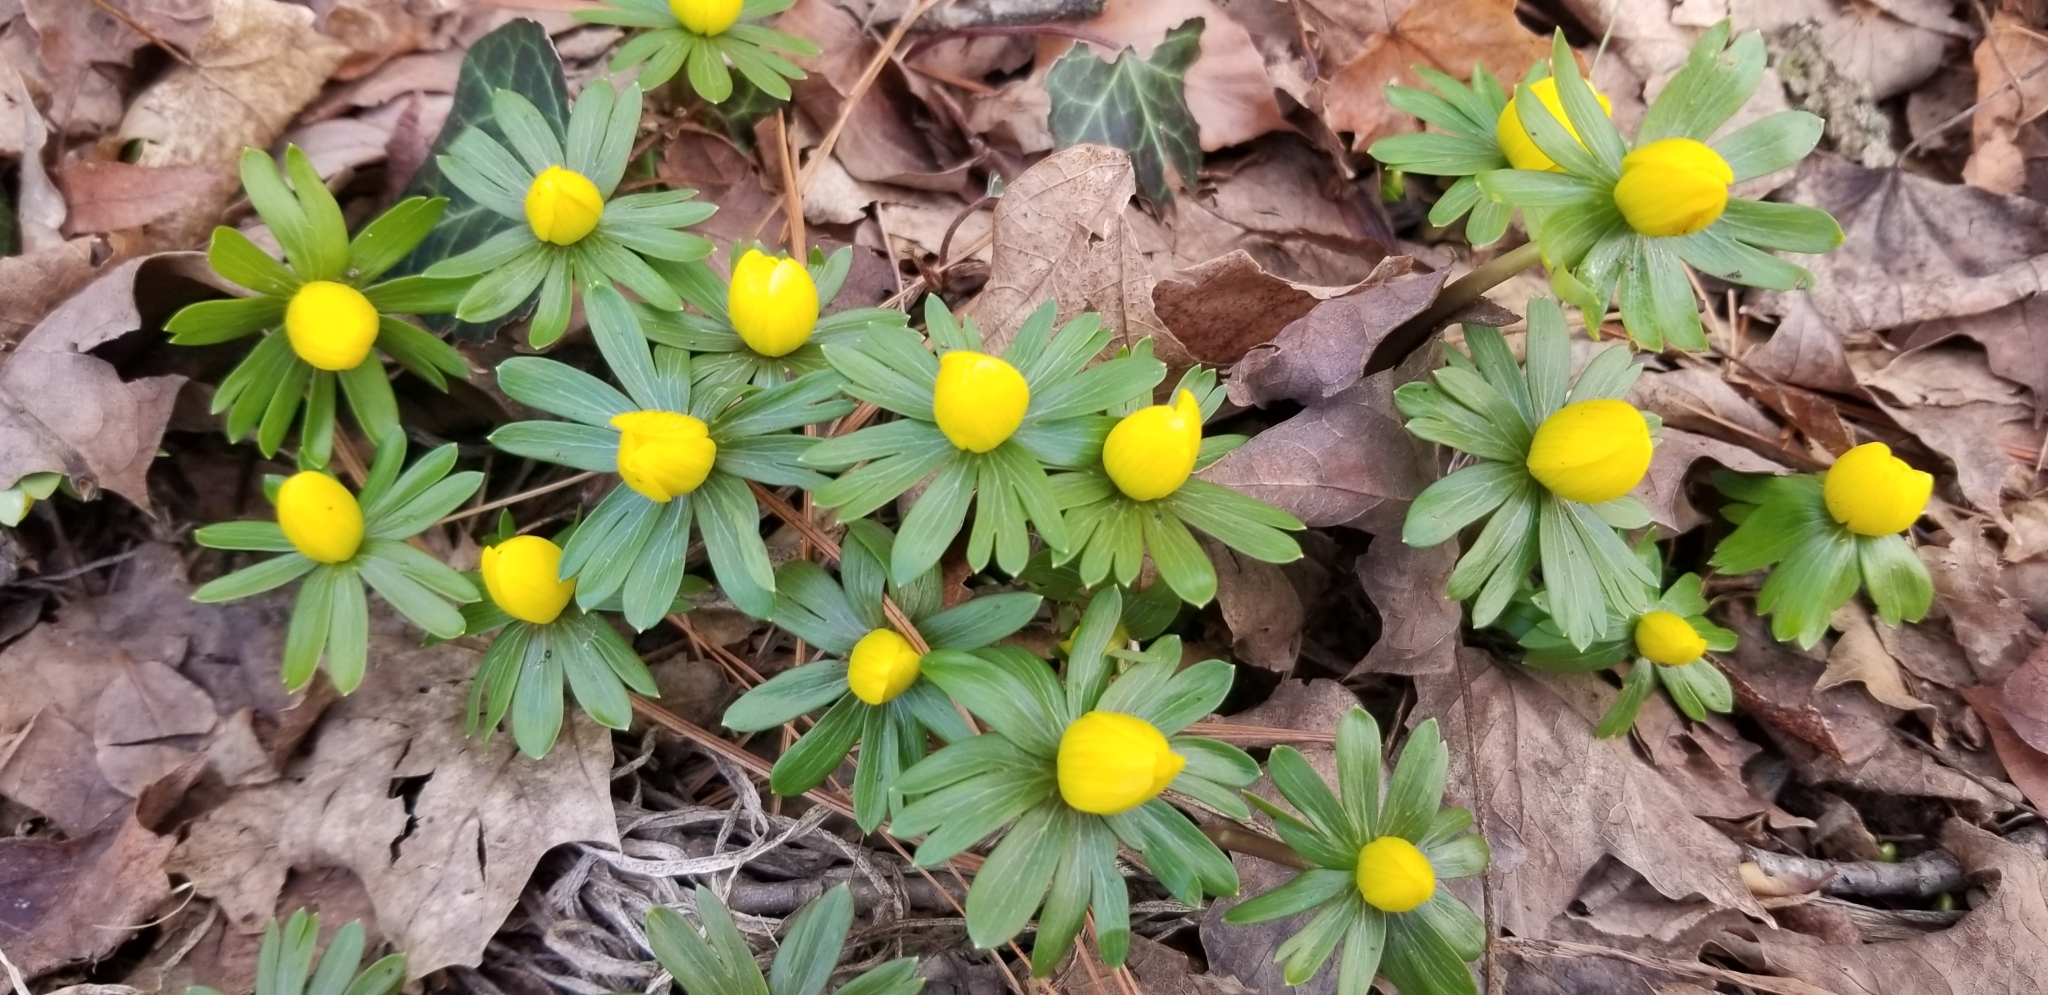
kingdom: Plantae
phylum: Tracheophyta
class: Magnoliopsida
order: Ranunculales
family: Ranunculaceae
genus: Eranthis
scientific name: Eranthis hyemalis
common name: Winter aconite
